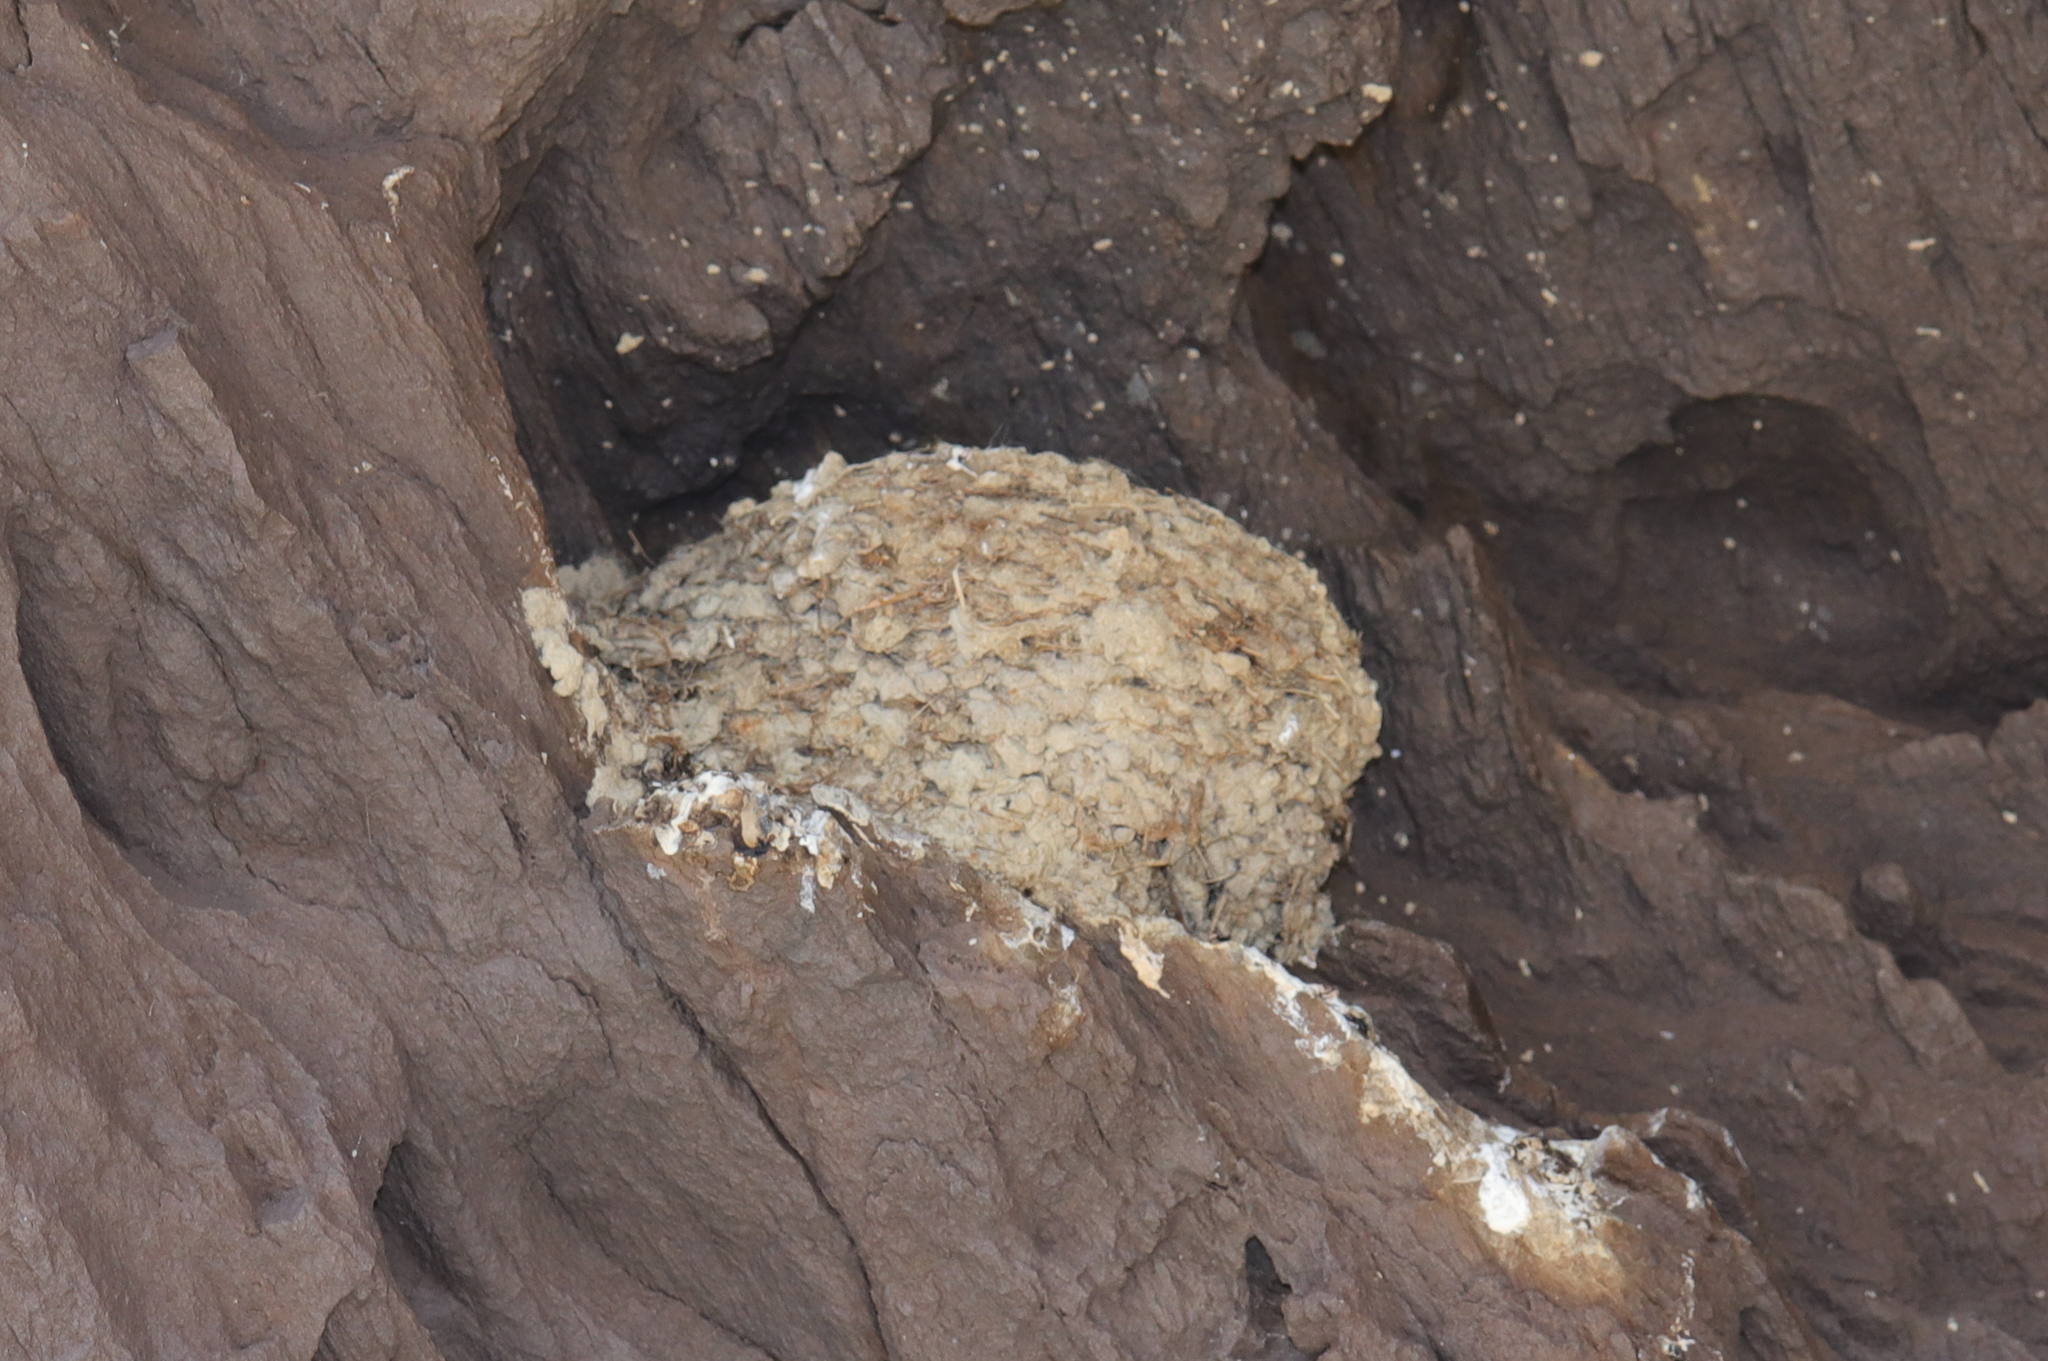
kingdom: Animalia
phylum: Chordata
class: Aves
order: Passeriformes
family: Hirundinidae
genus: Hirundo
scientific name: Hirundo neoxena
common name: Welcome swallow
